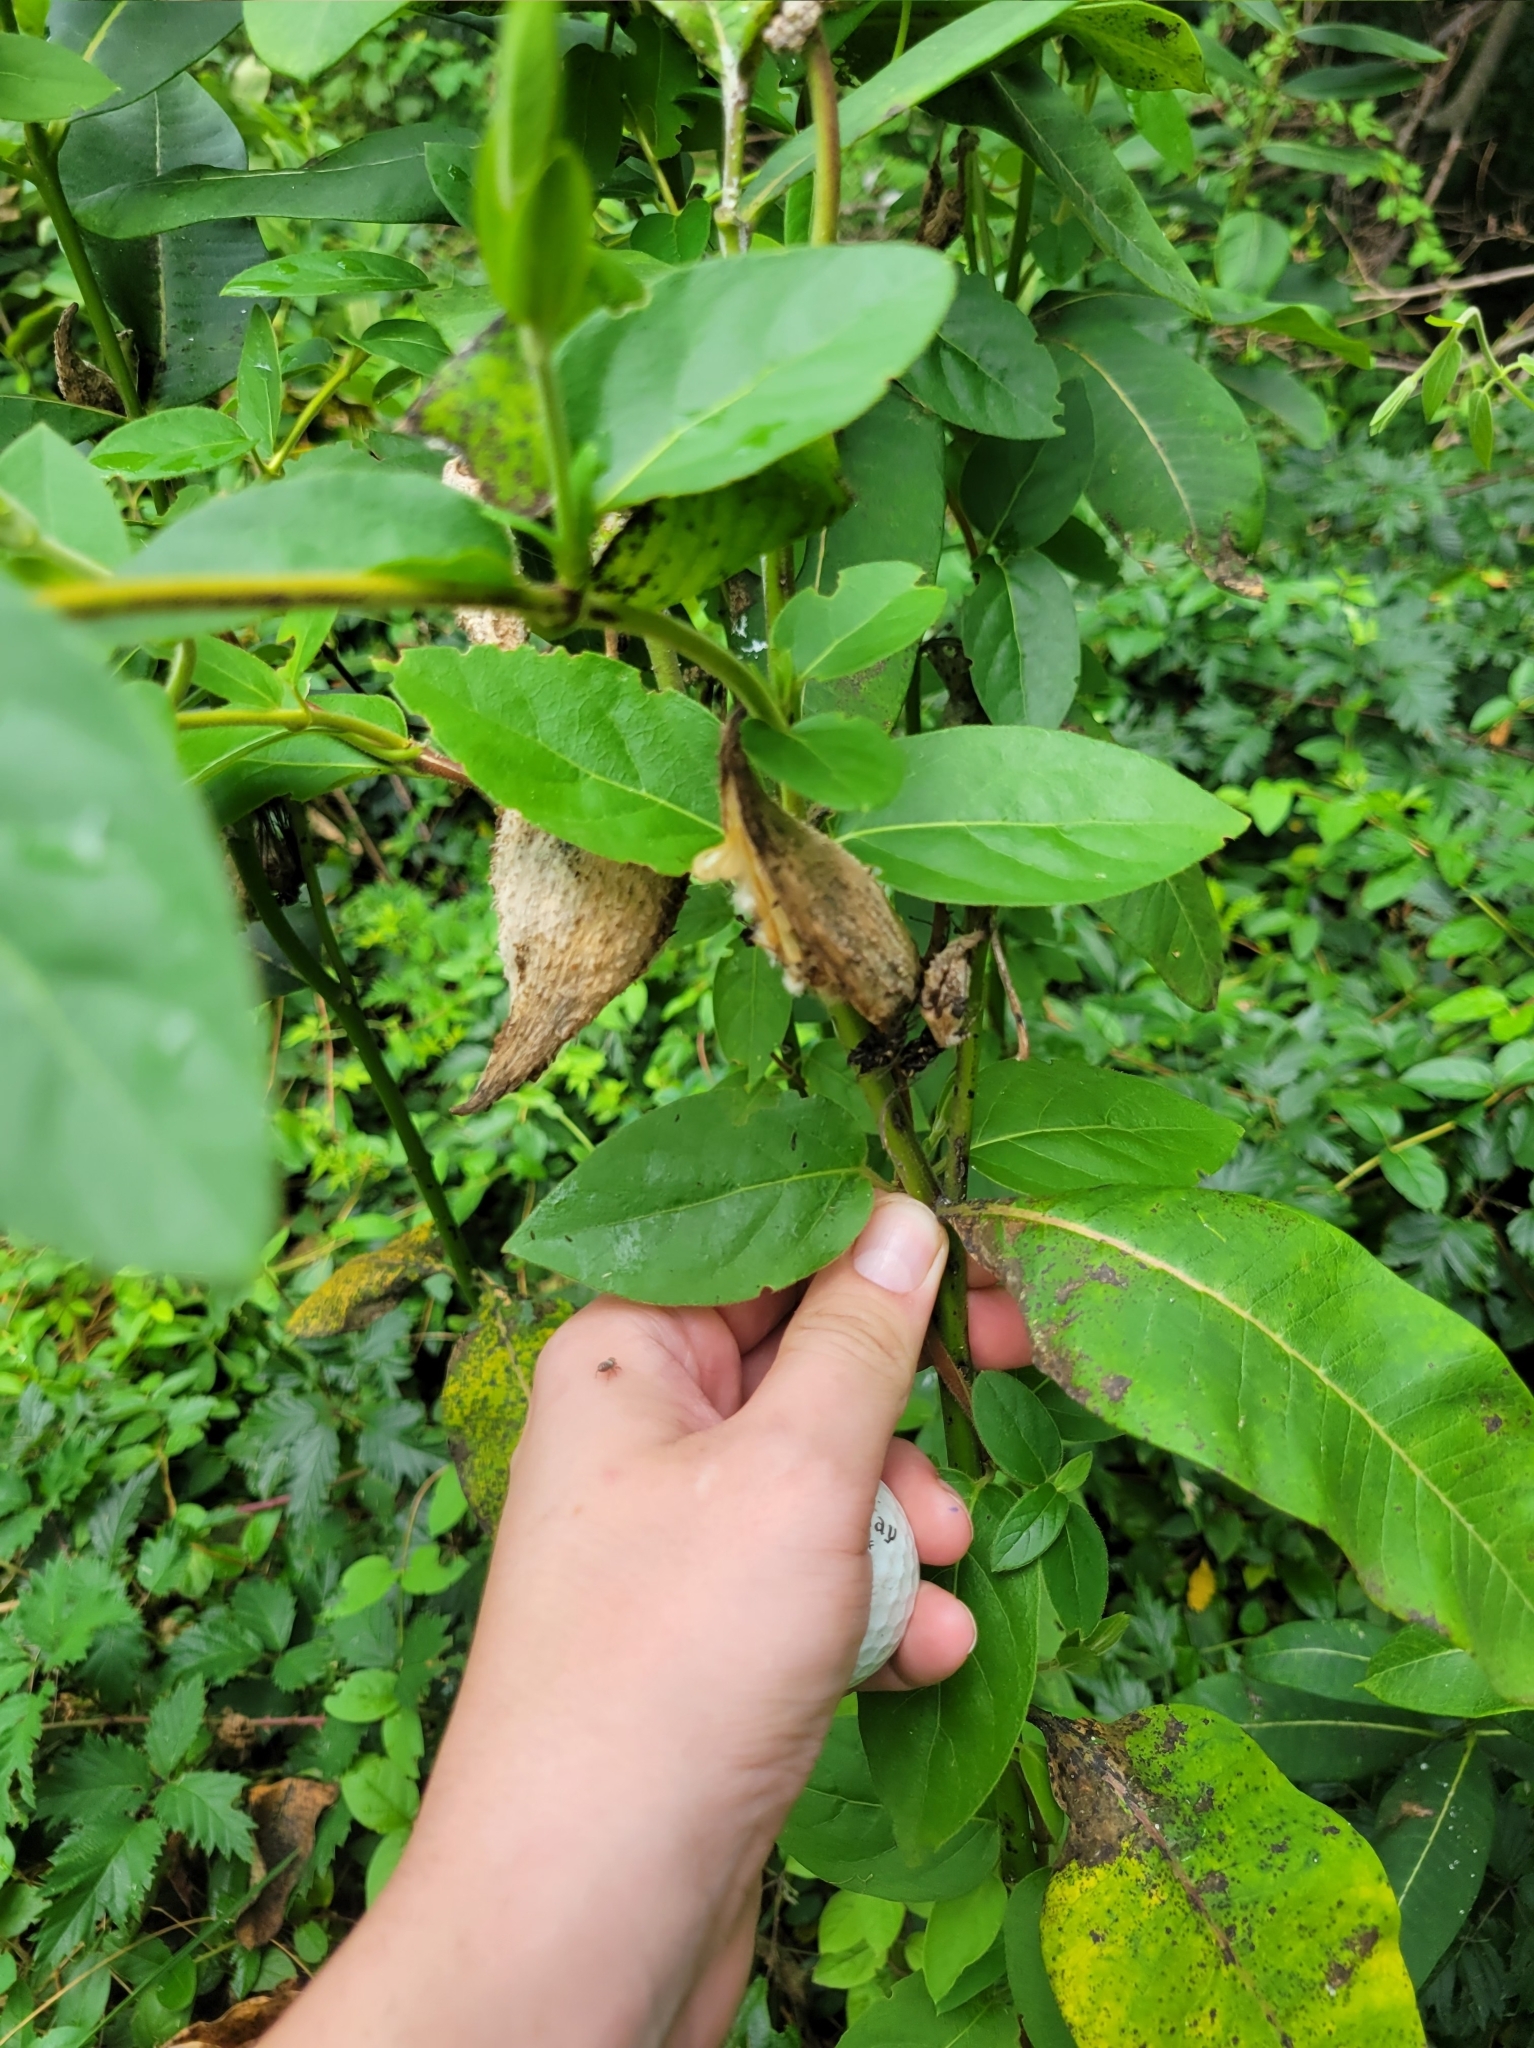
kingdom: Plantae
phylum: Tracheophyta
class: Magnoliopsida
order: Gentianales
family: Apocynaceae
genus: Asclepias
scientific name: Asclepias syriaca
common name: Common milkweed
